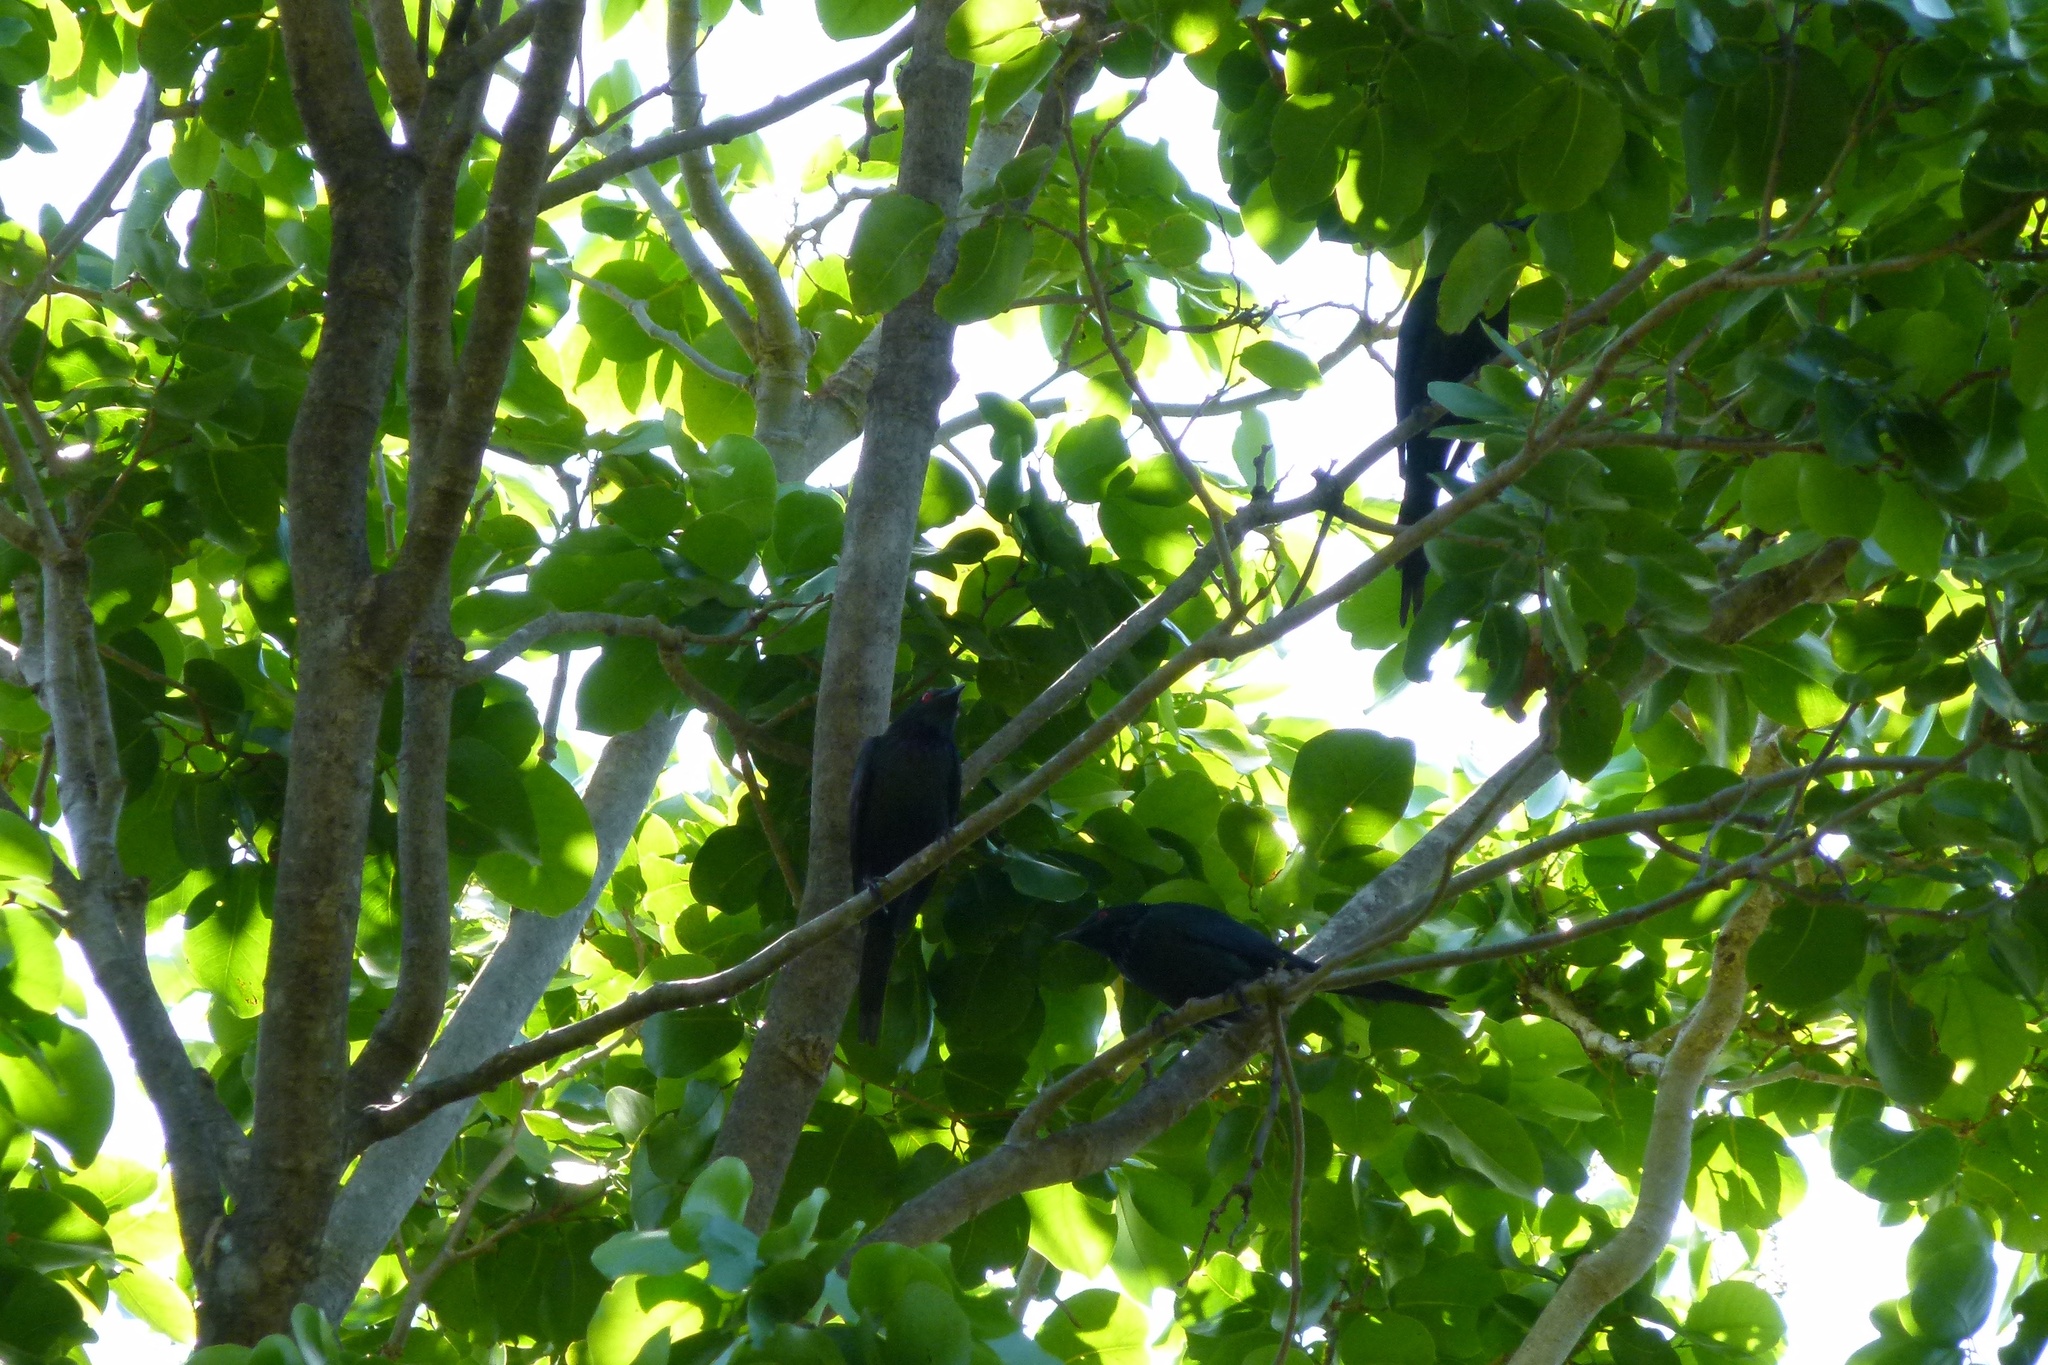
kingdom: Animalia
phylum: Chordata
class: Aves
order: Passeriformes
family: Sturnidae
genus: Aplonis
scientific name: Aplonis metallica
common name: Metallic starling
